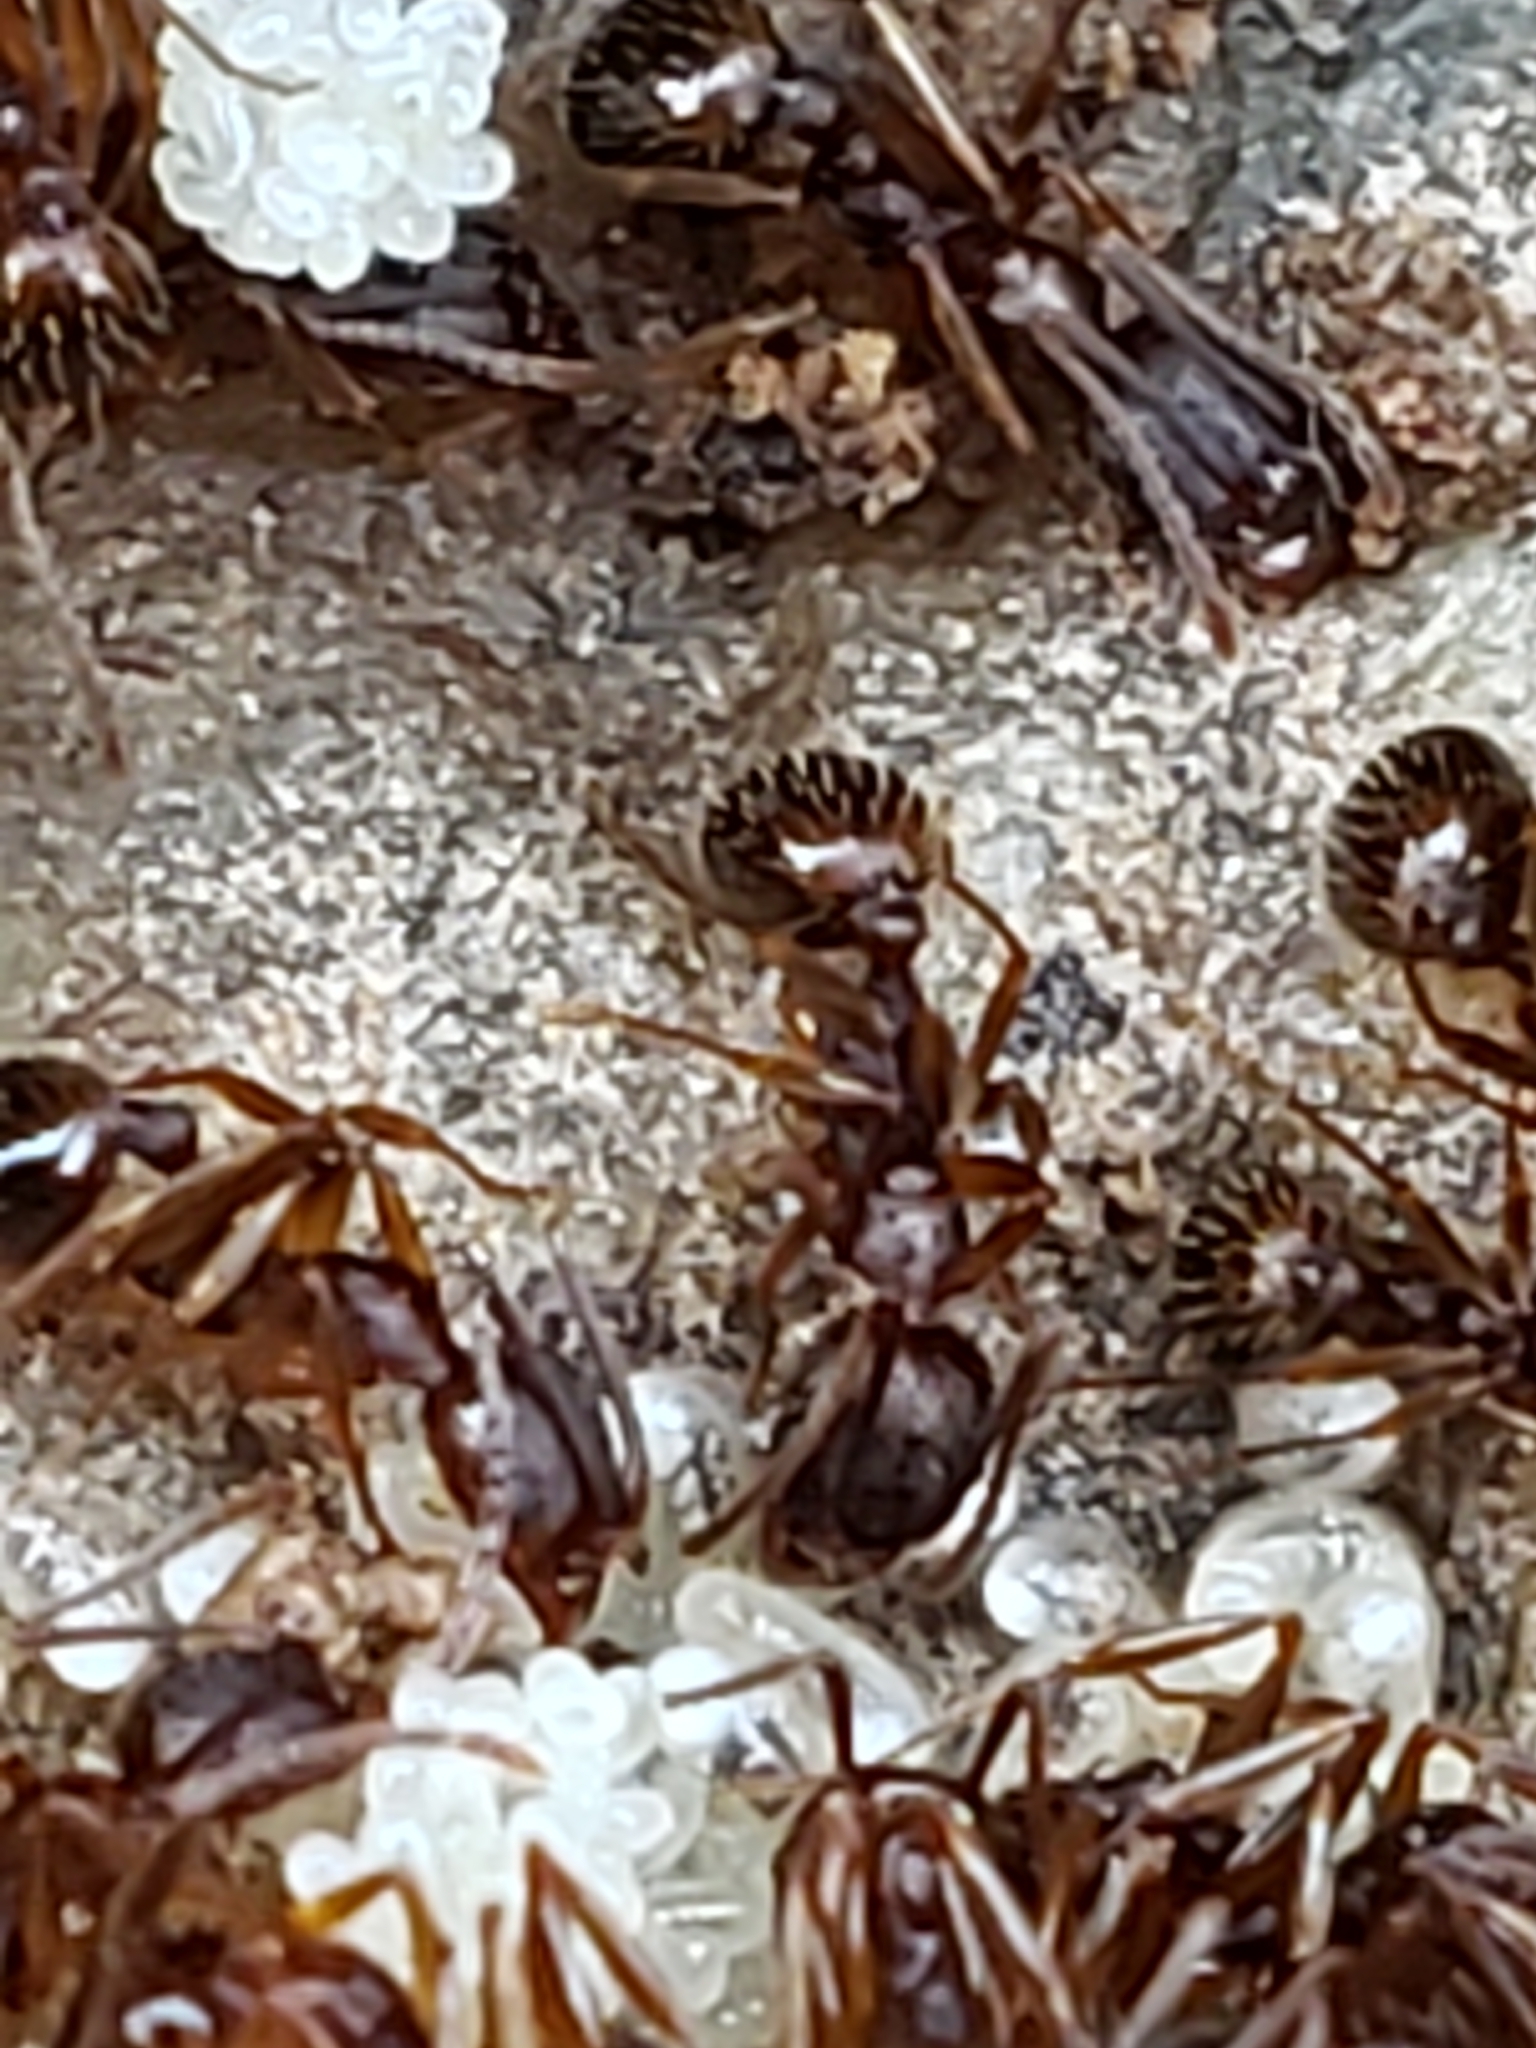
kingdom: Animalia
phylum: Arthropoda
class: Insecta
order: Hymenoptera
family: Formicidae
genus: Aphaenogaster
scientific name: Aphaenogaster rudis
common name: Winnow ant
